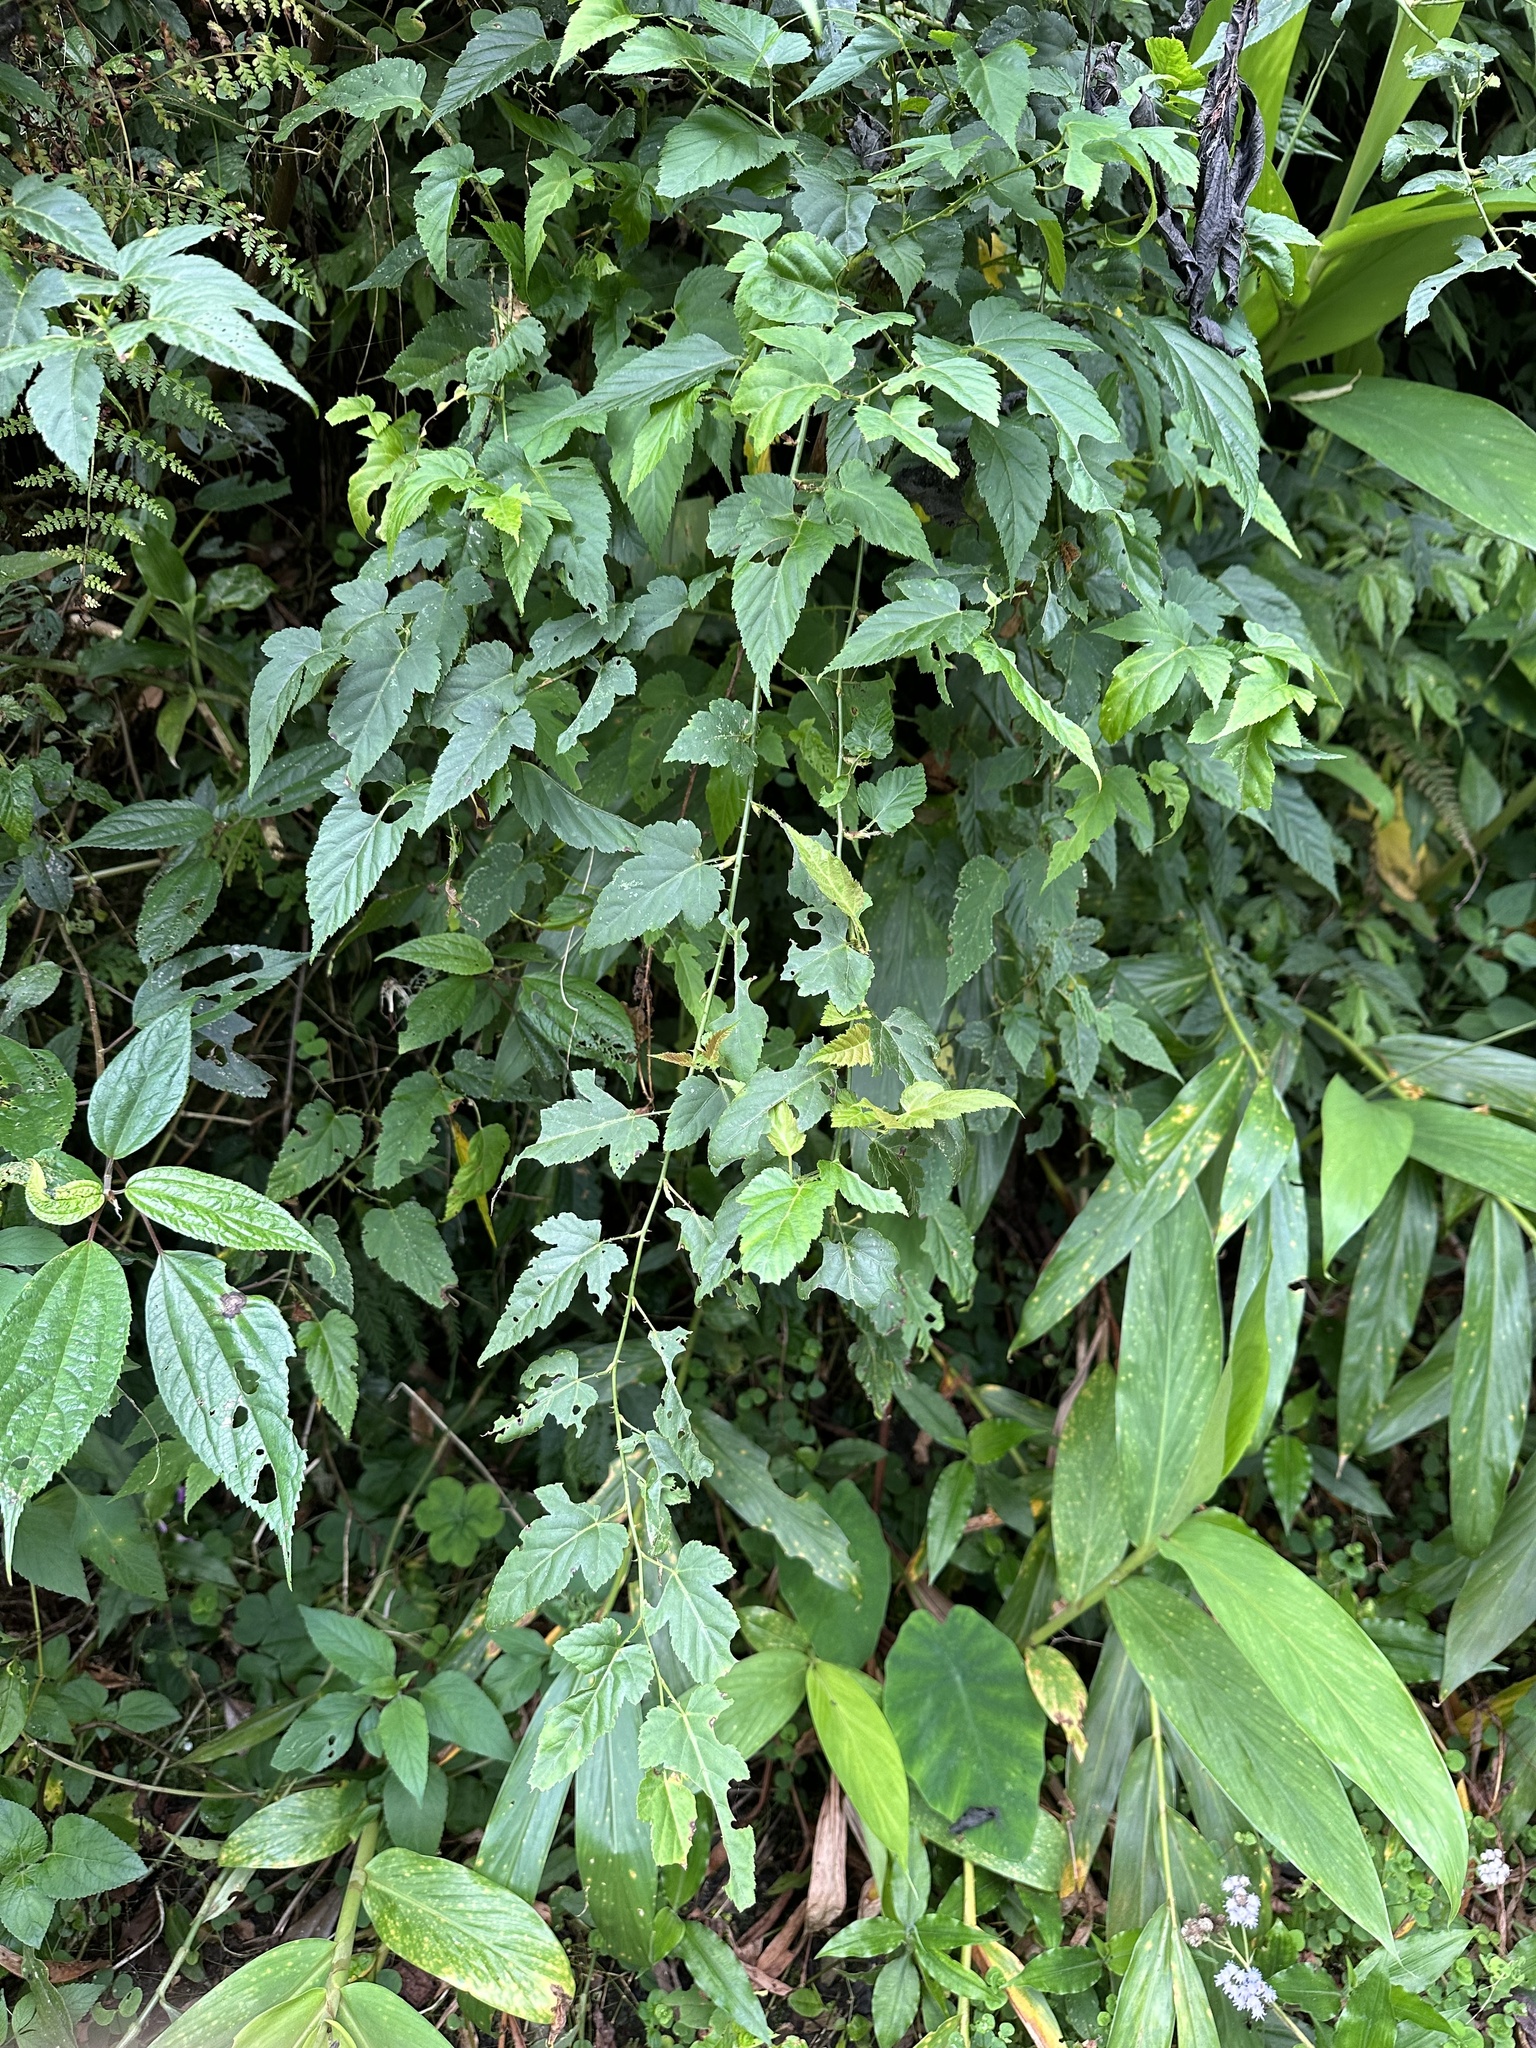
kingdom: Plantae
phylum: Tracheophyta
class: Magnoliopsida
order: Rosales
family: Rosaceae
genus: Rubus
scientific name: Rubus corchorifolius
